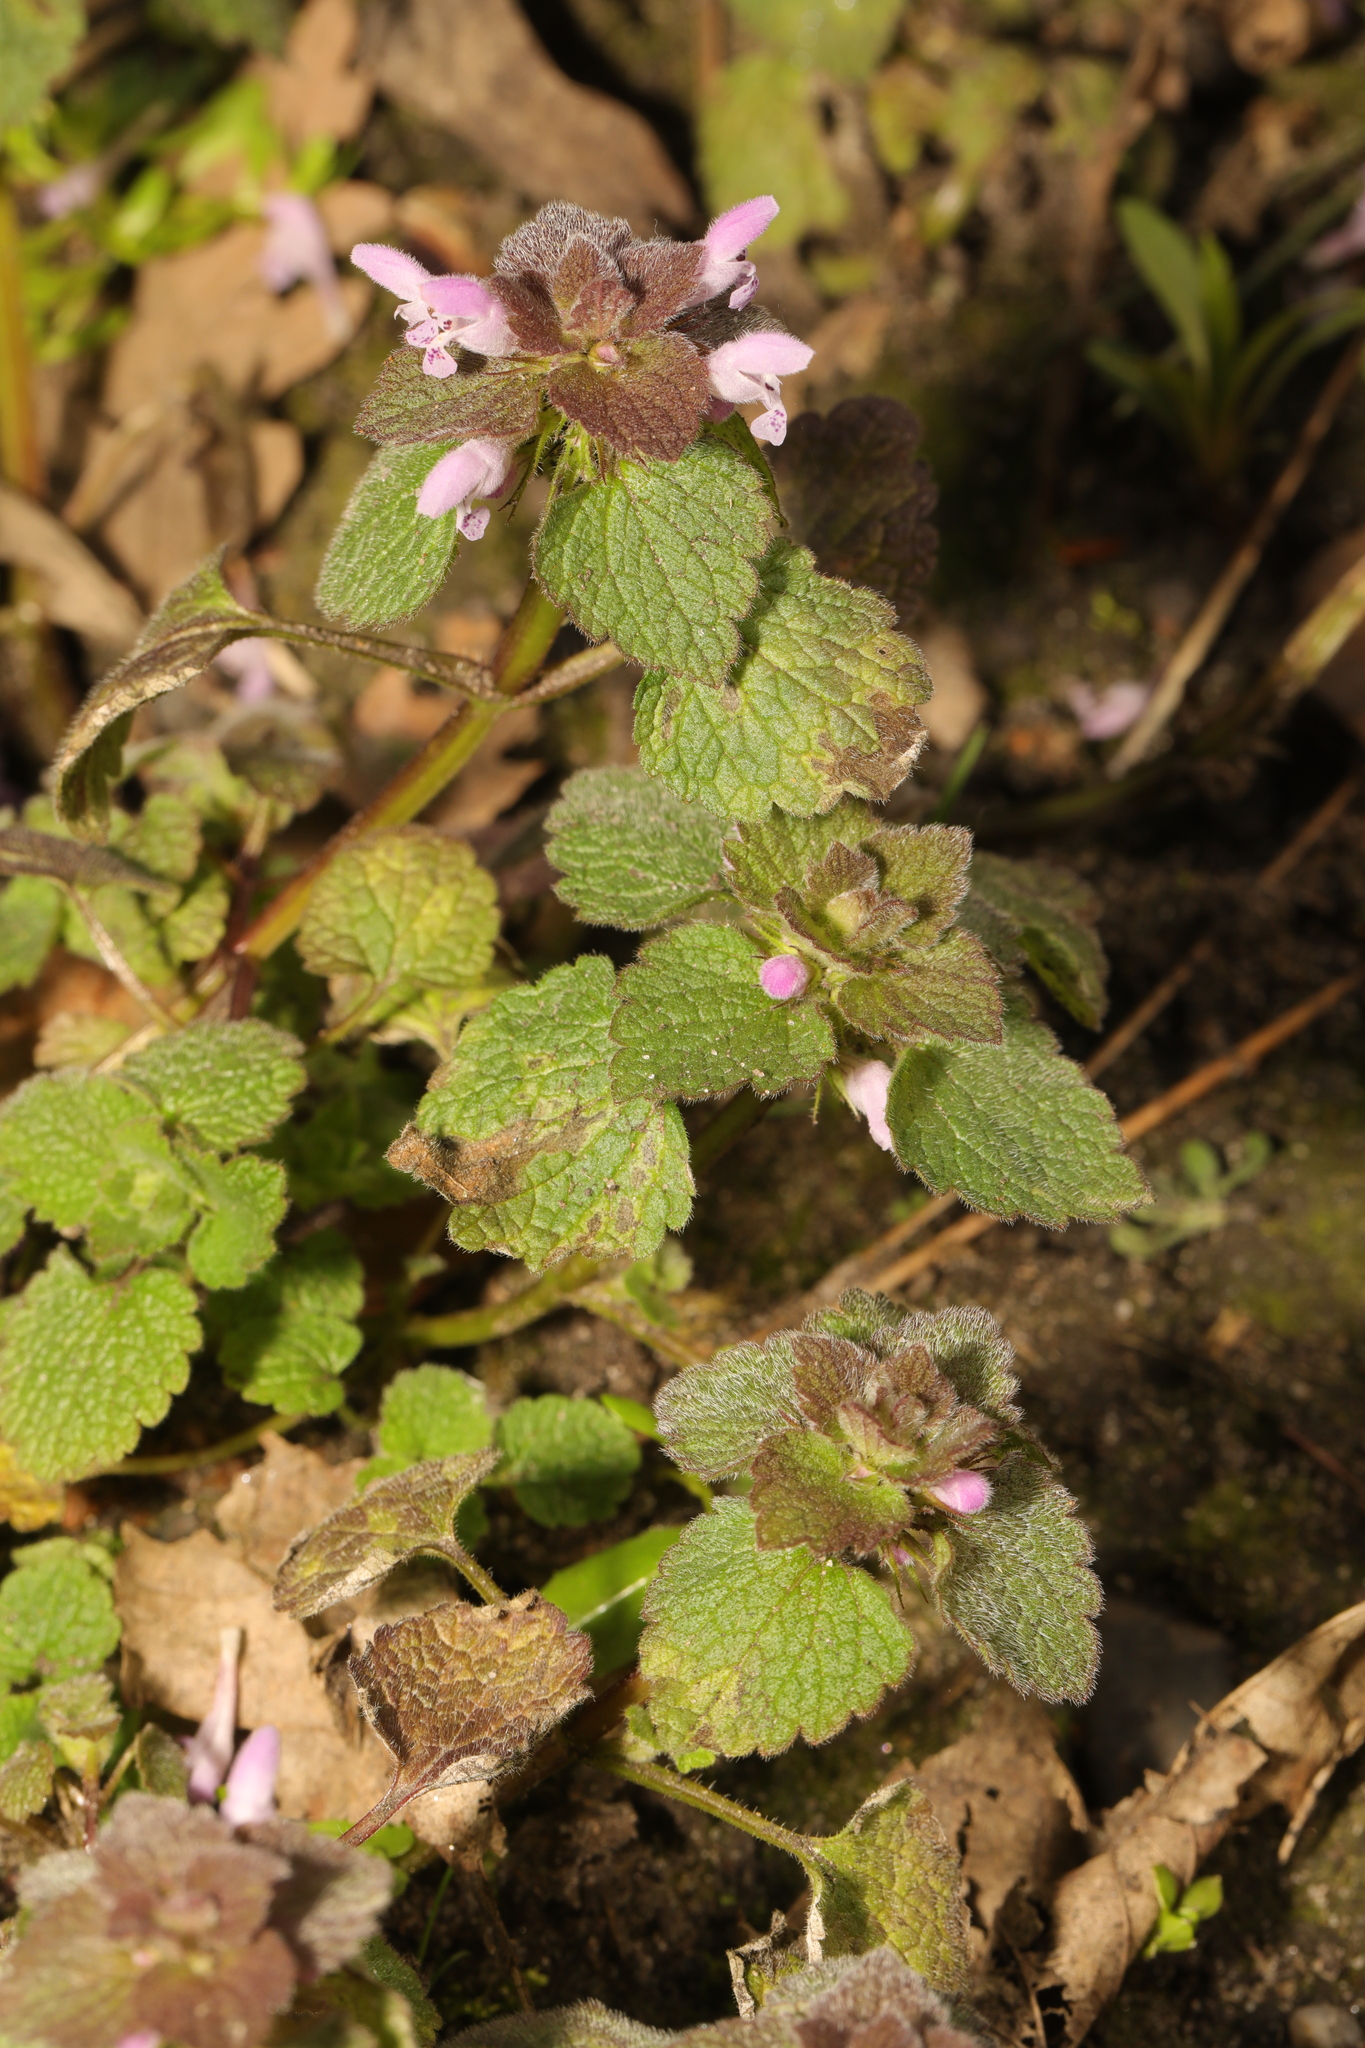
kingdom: Plantae
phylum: Tracheophyta
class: Magnoliopsida
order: Lamiales
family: Lamiaceae
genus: Lamium
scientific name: Lamium purpureum
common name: Red dead-nettle
